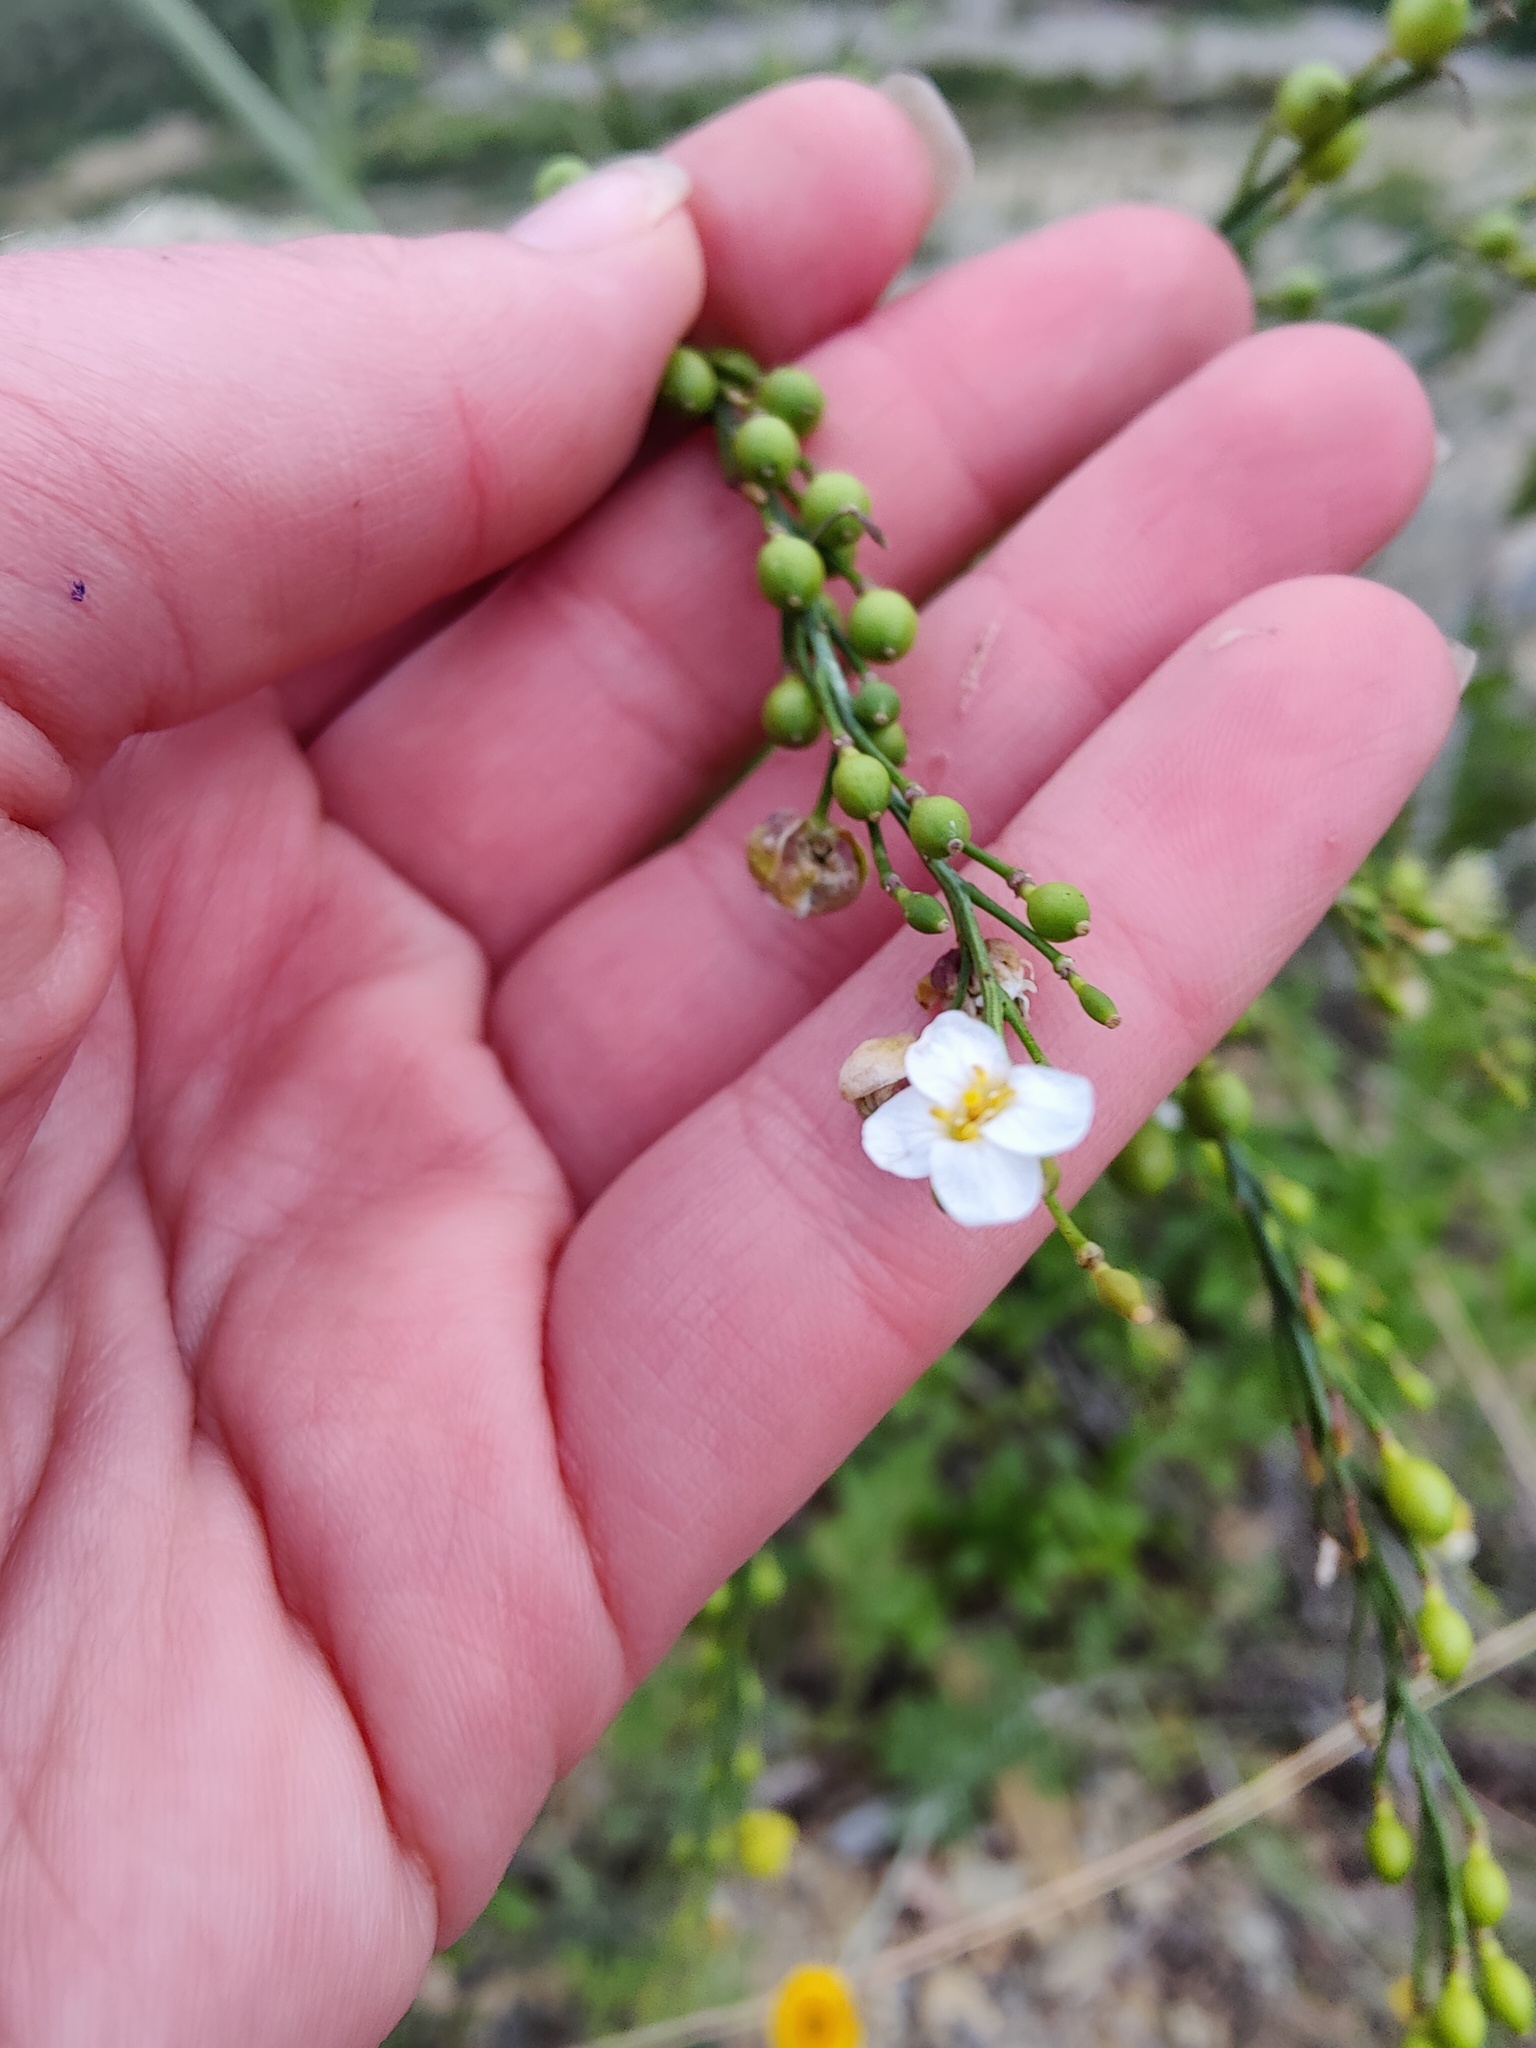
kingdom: Plantae
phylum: Tracheophyta
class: Magnoliopsida
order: Brassicales
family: Brassicaceae
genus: Crambe
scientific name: Crambe koktebelica
